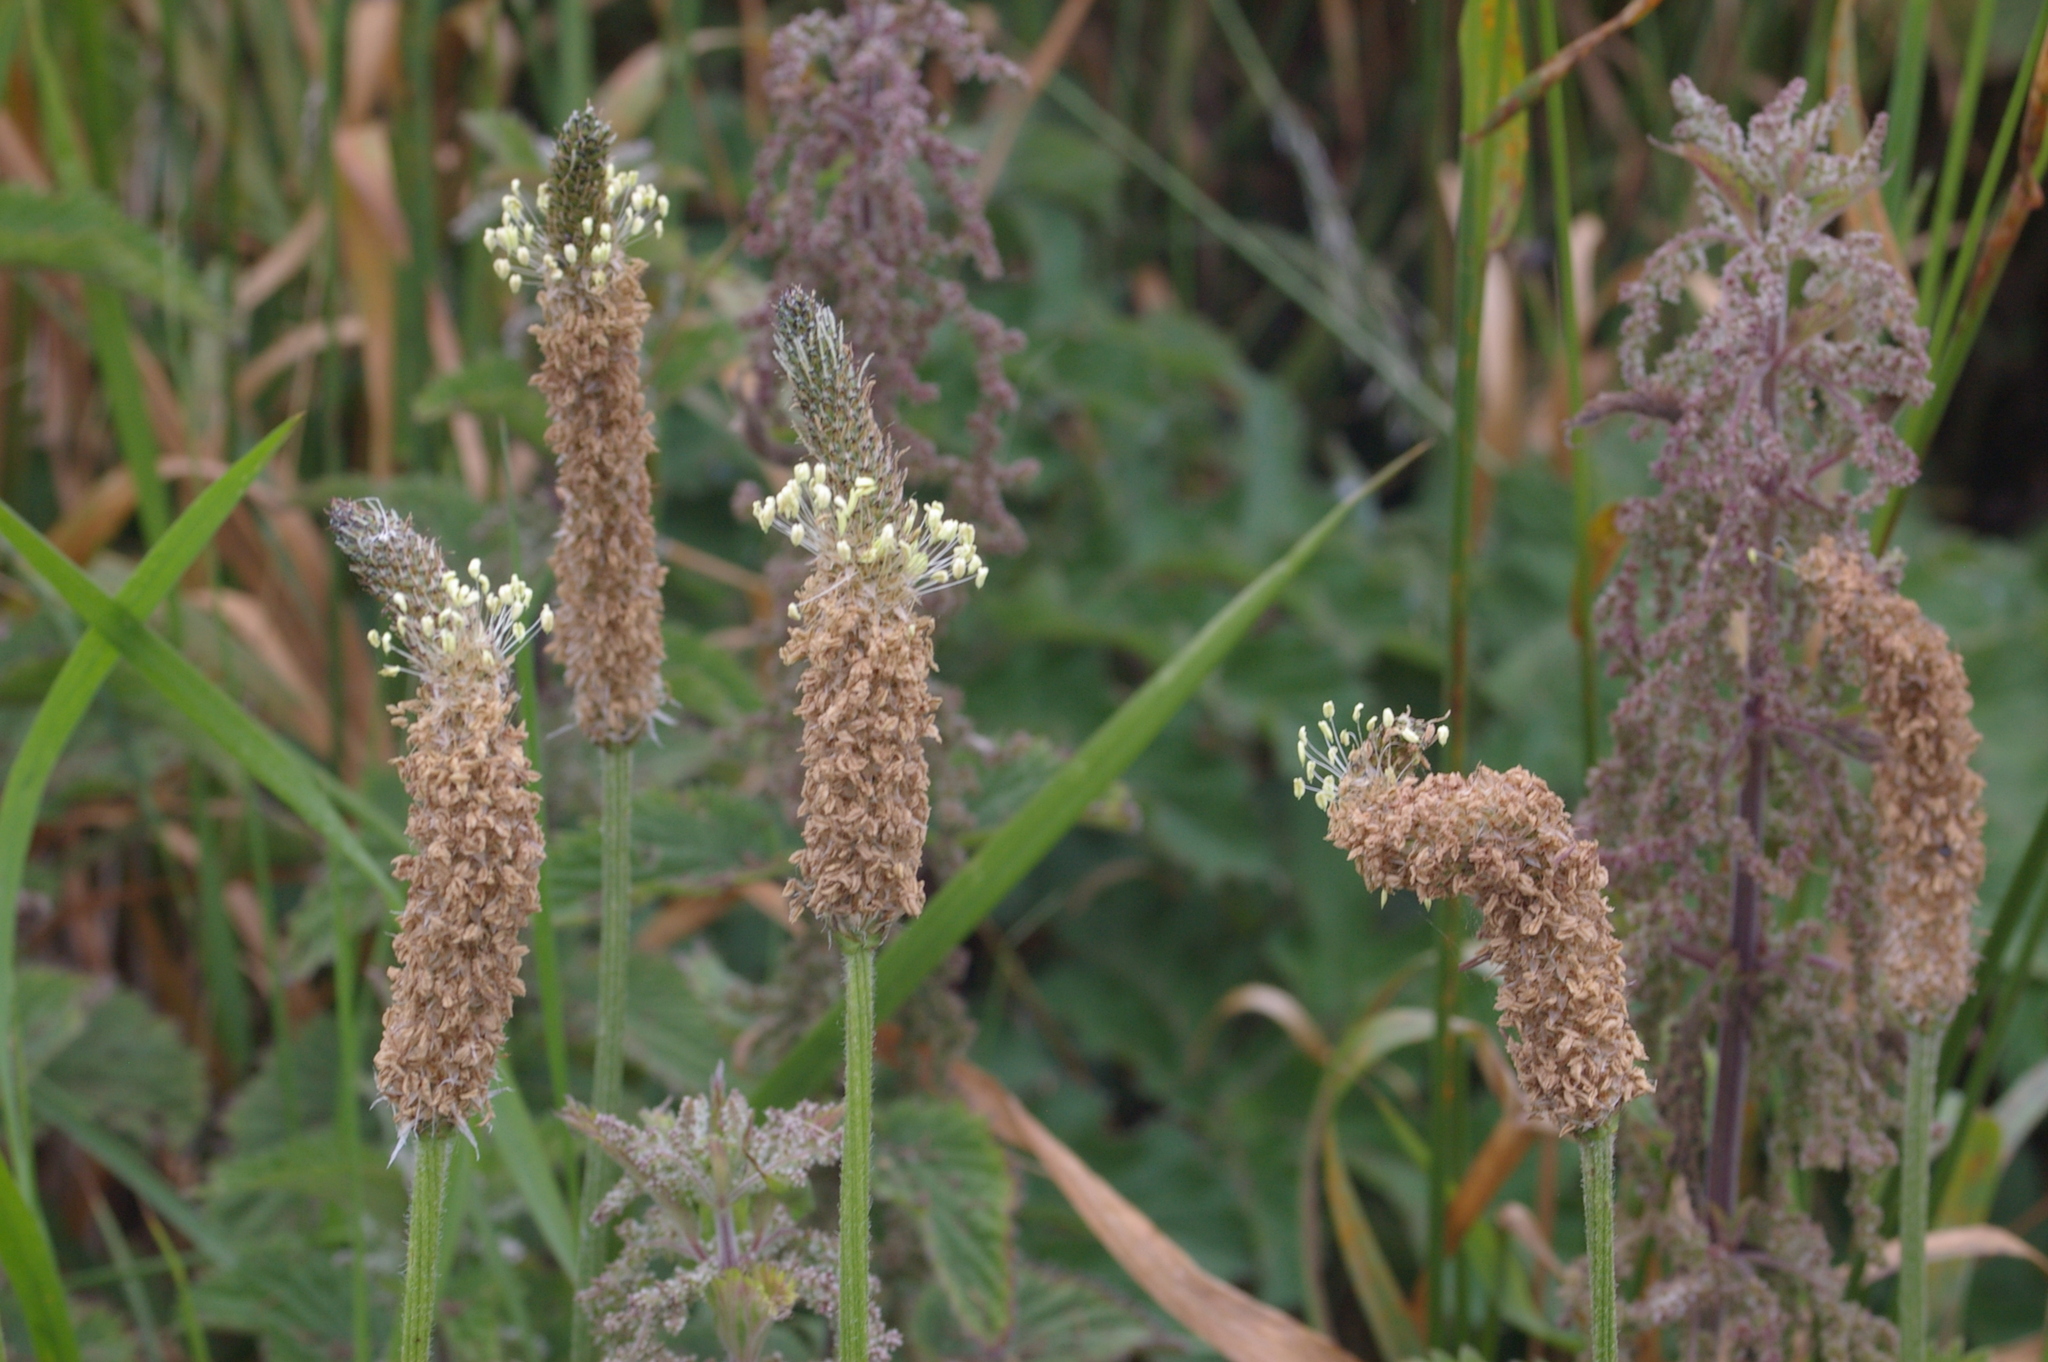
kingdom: Plantae
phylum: Tracheophyta
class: Magnoliopsida
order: Lamiales
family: Plantaginaceae
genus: Plantago
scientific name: Plantago lanceolata
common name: Ribwort plantain
